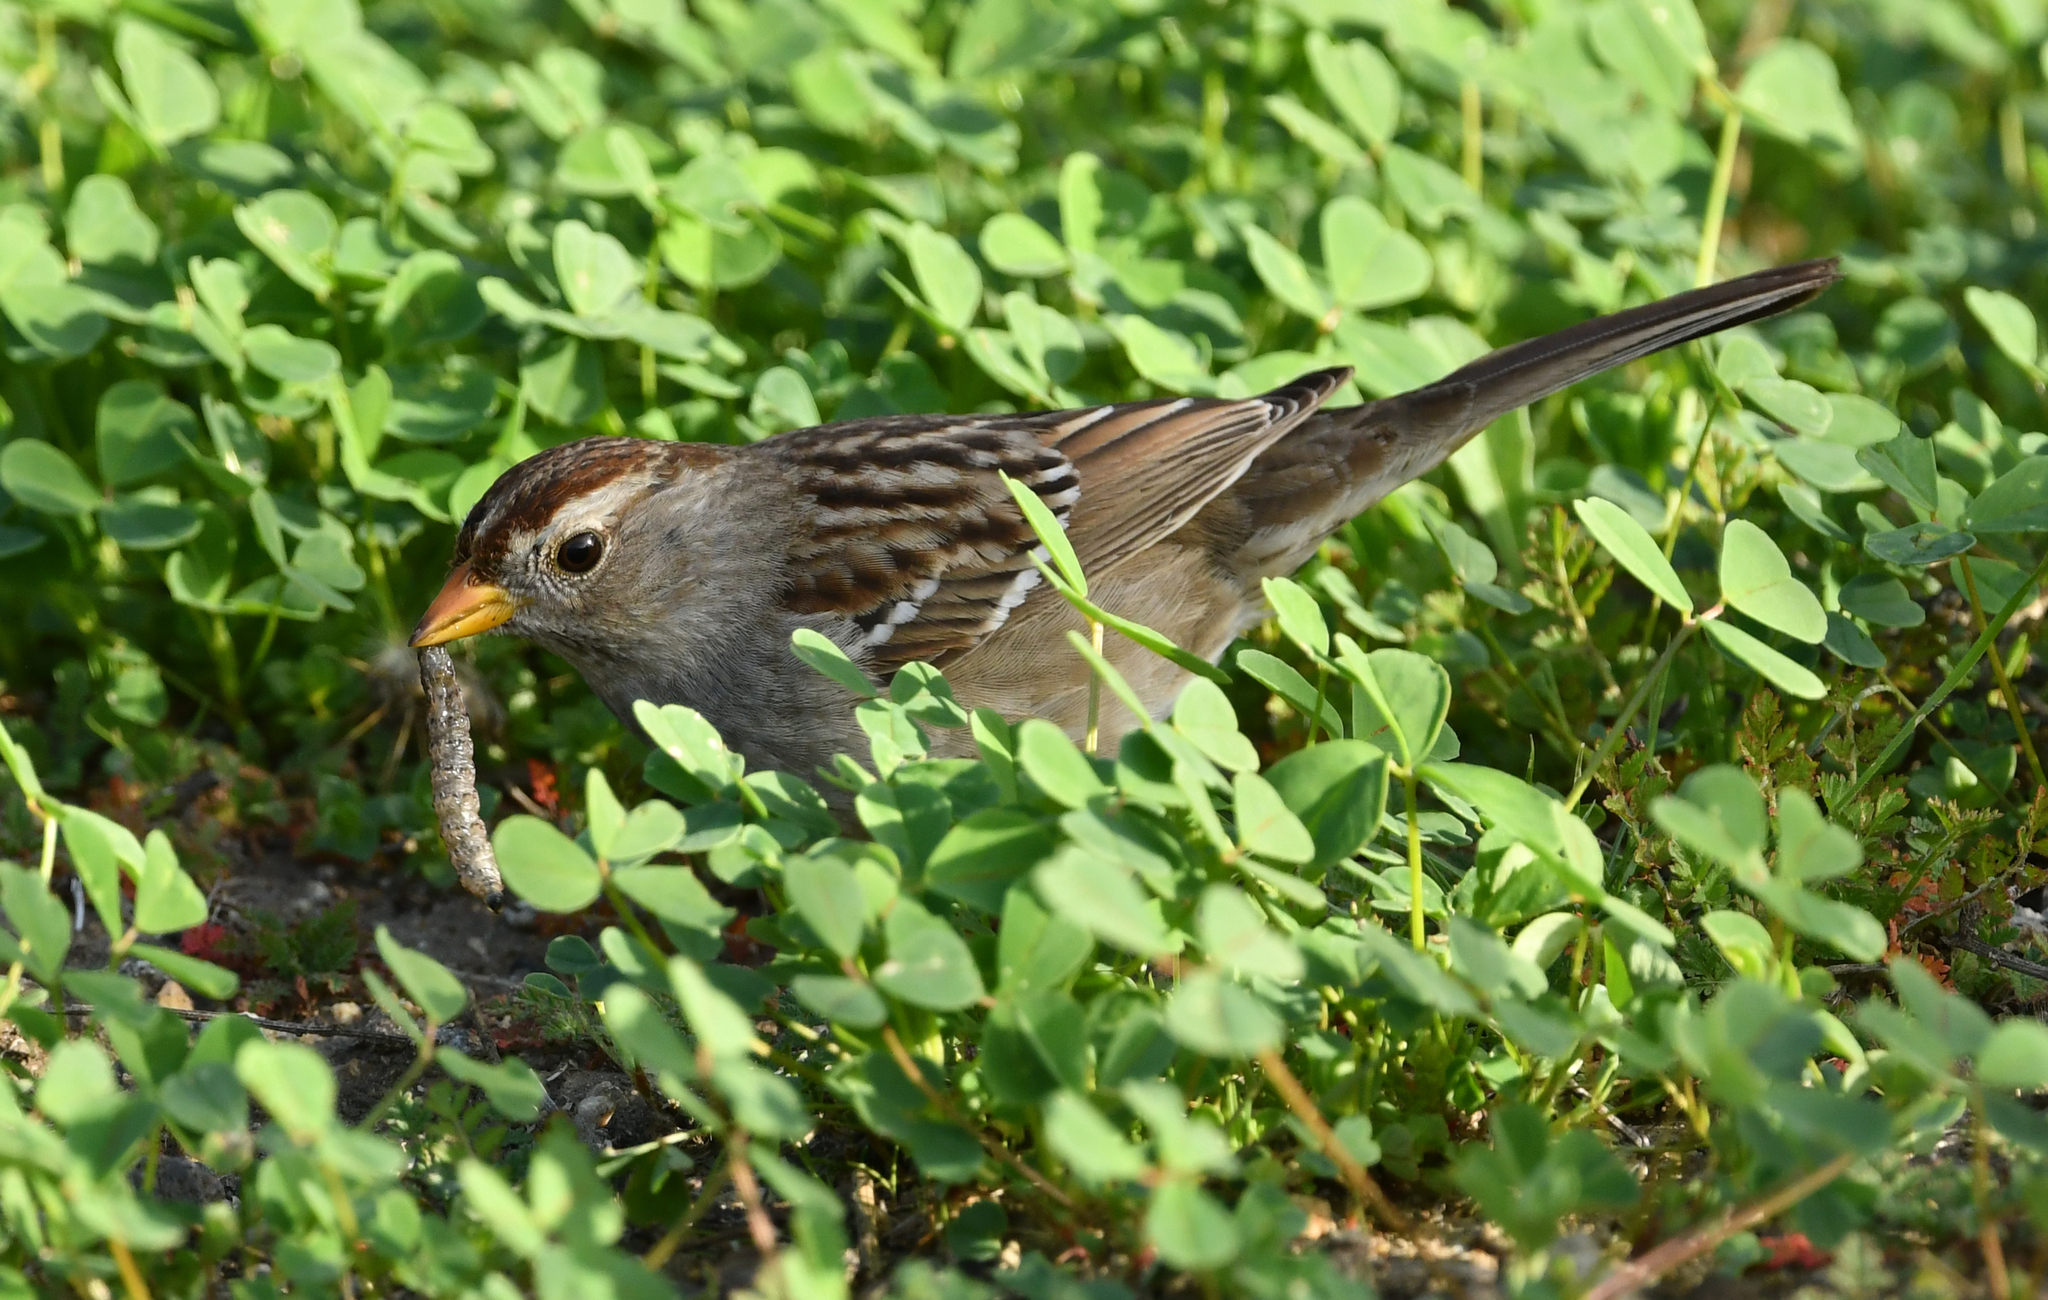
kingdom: Animalia
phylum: Chordata
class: Aves
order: Passeriformes
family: Passerellidae
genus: Zonotrichia
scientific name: Zonotrichia leucophrys
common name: White-crowned sparrow
